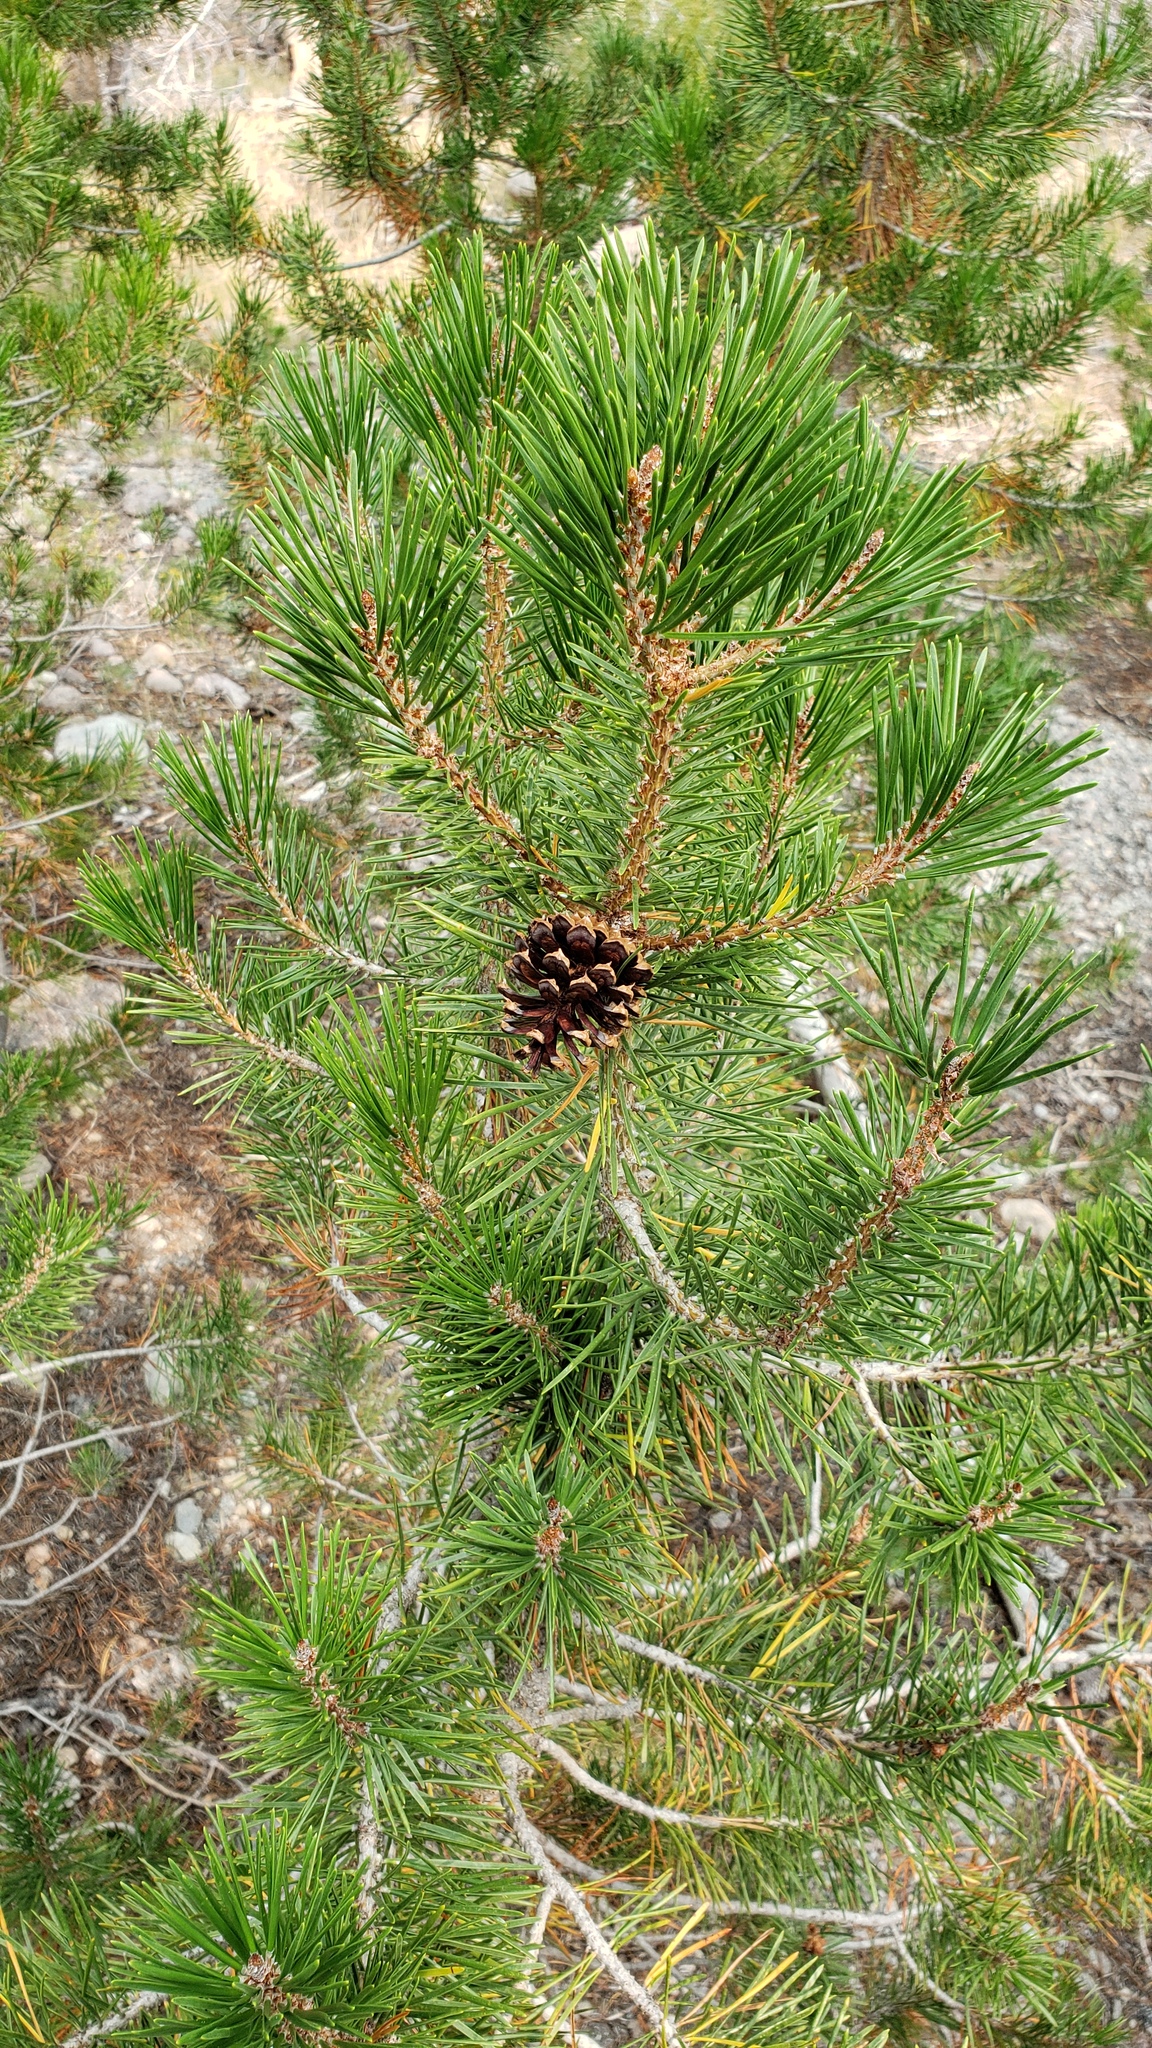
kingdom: Plantae
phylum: Tracheophyta
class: Pinopsida
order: Pinales
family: Pinaceae
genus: Pinus
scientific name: Pinus contorta
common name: Lodgepole pine
